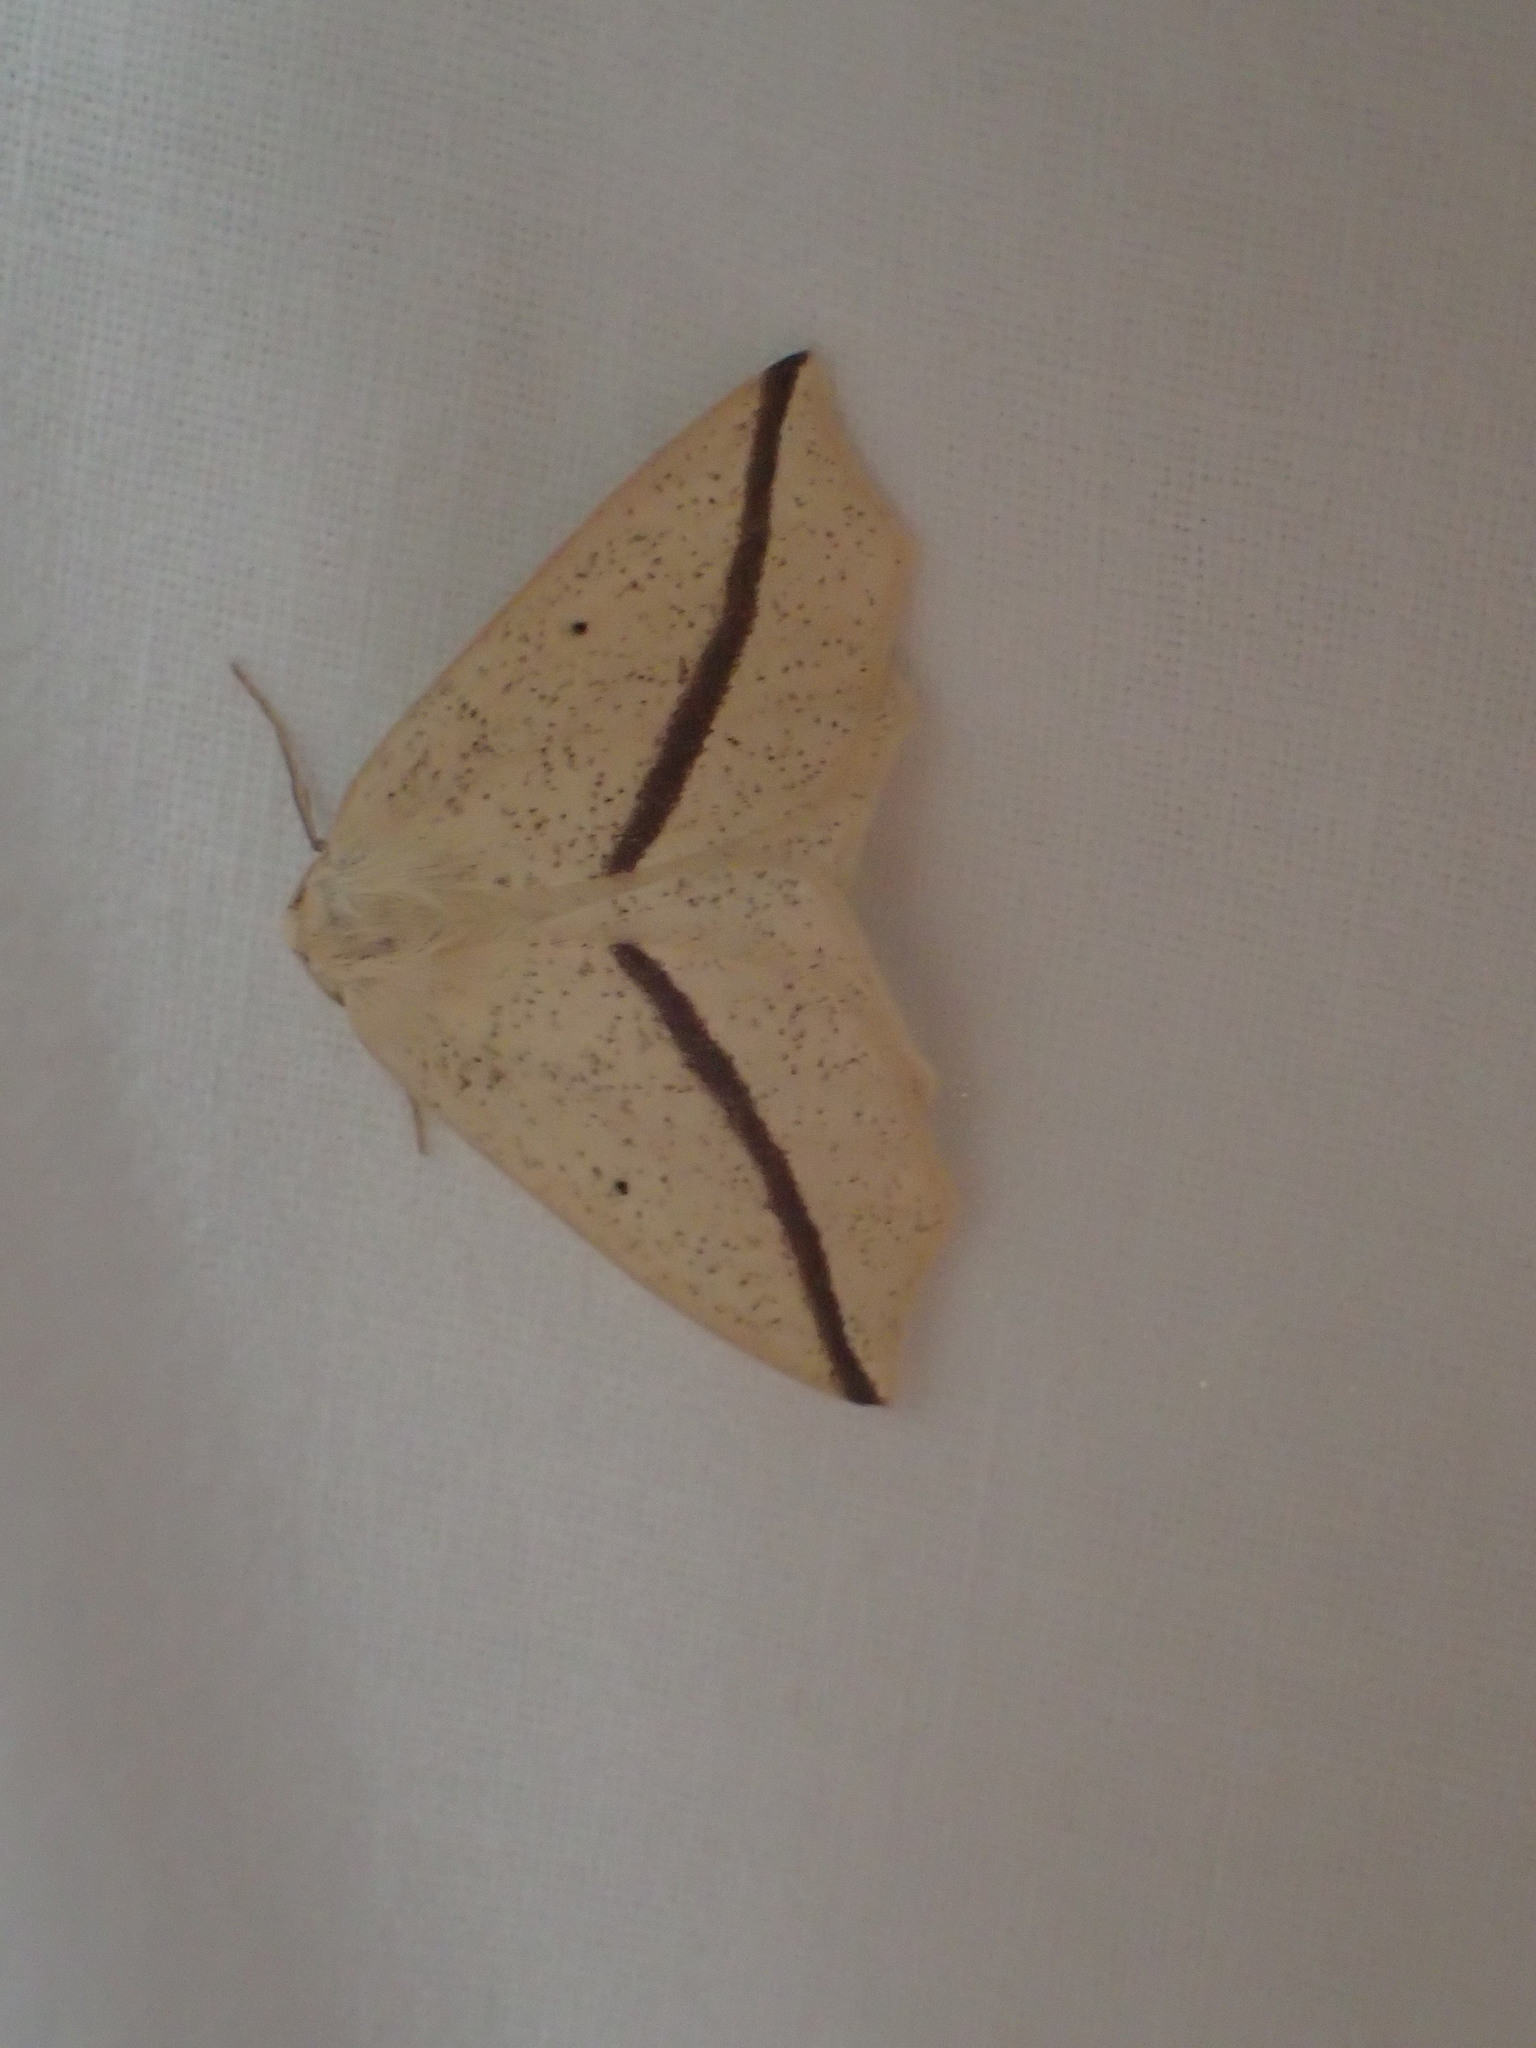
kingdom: Animalia
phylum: Arthropoda
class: Insecta
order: Lepidoptera
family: Geometridae
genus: Tetracis
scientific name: Tetracis crocallata
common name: Yellow slant-line
